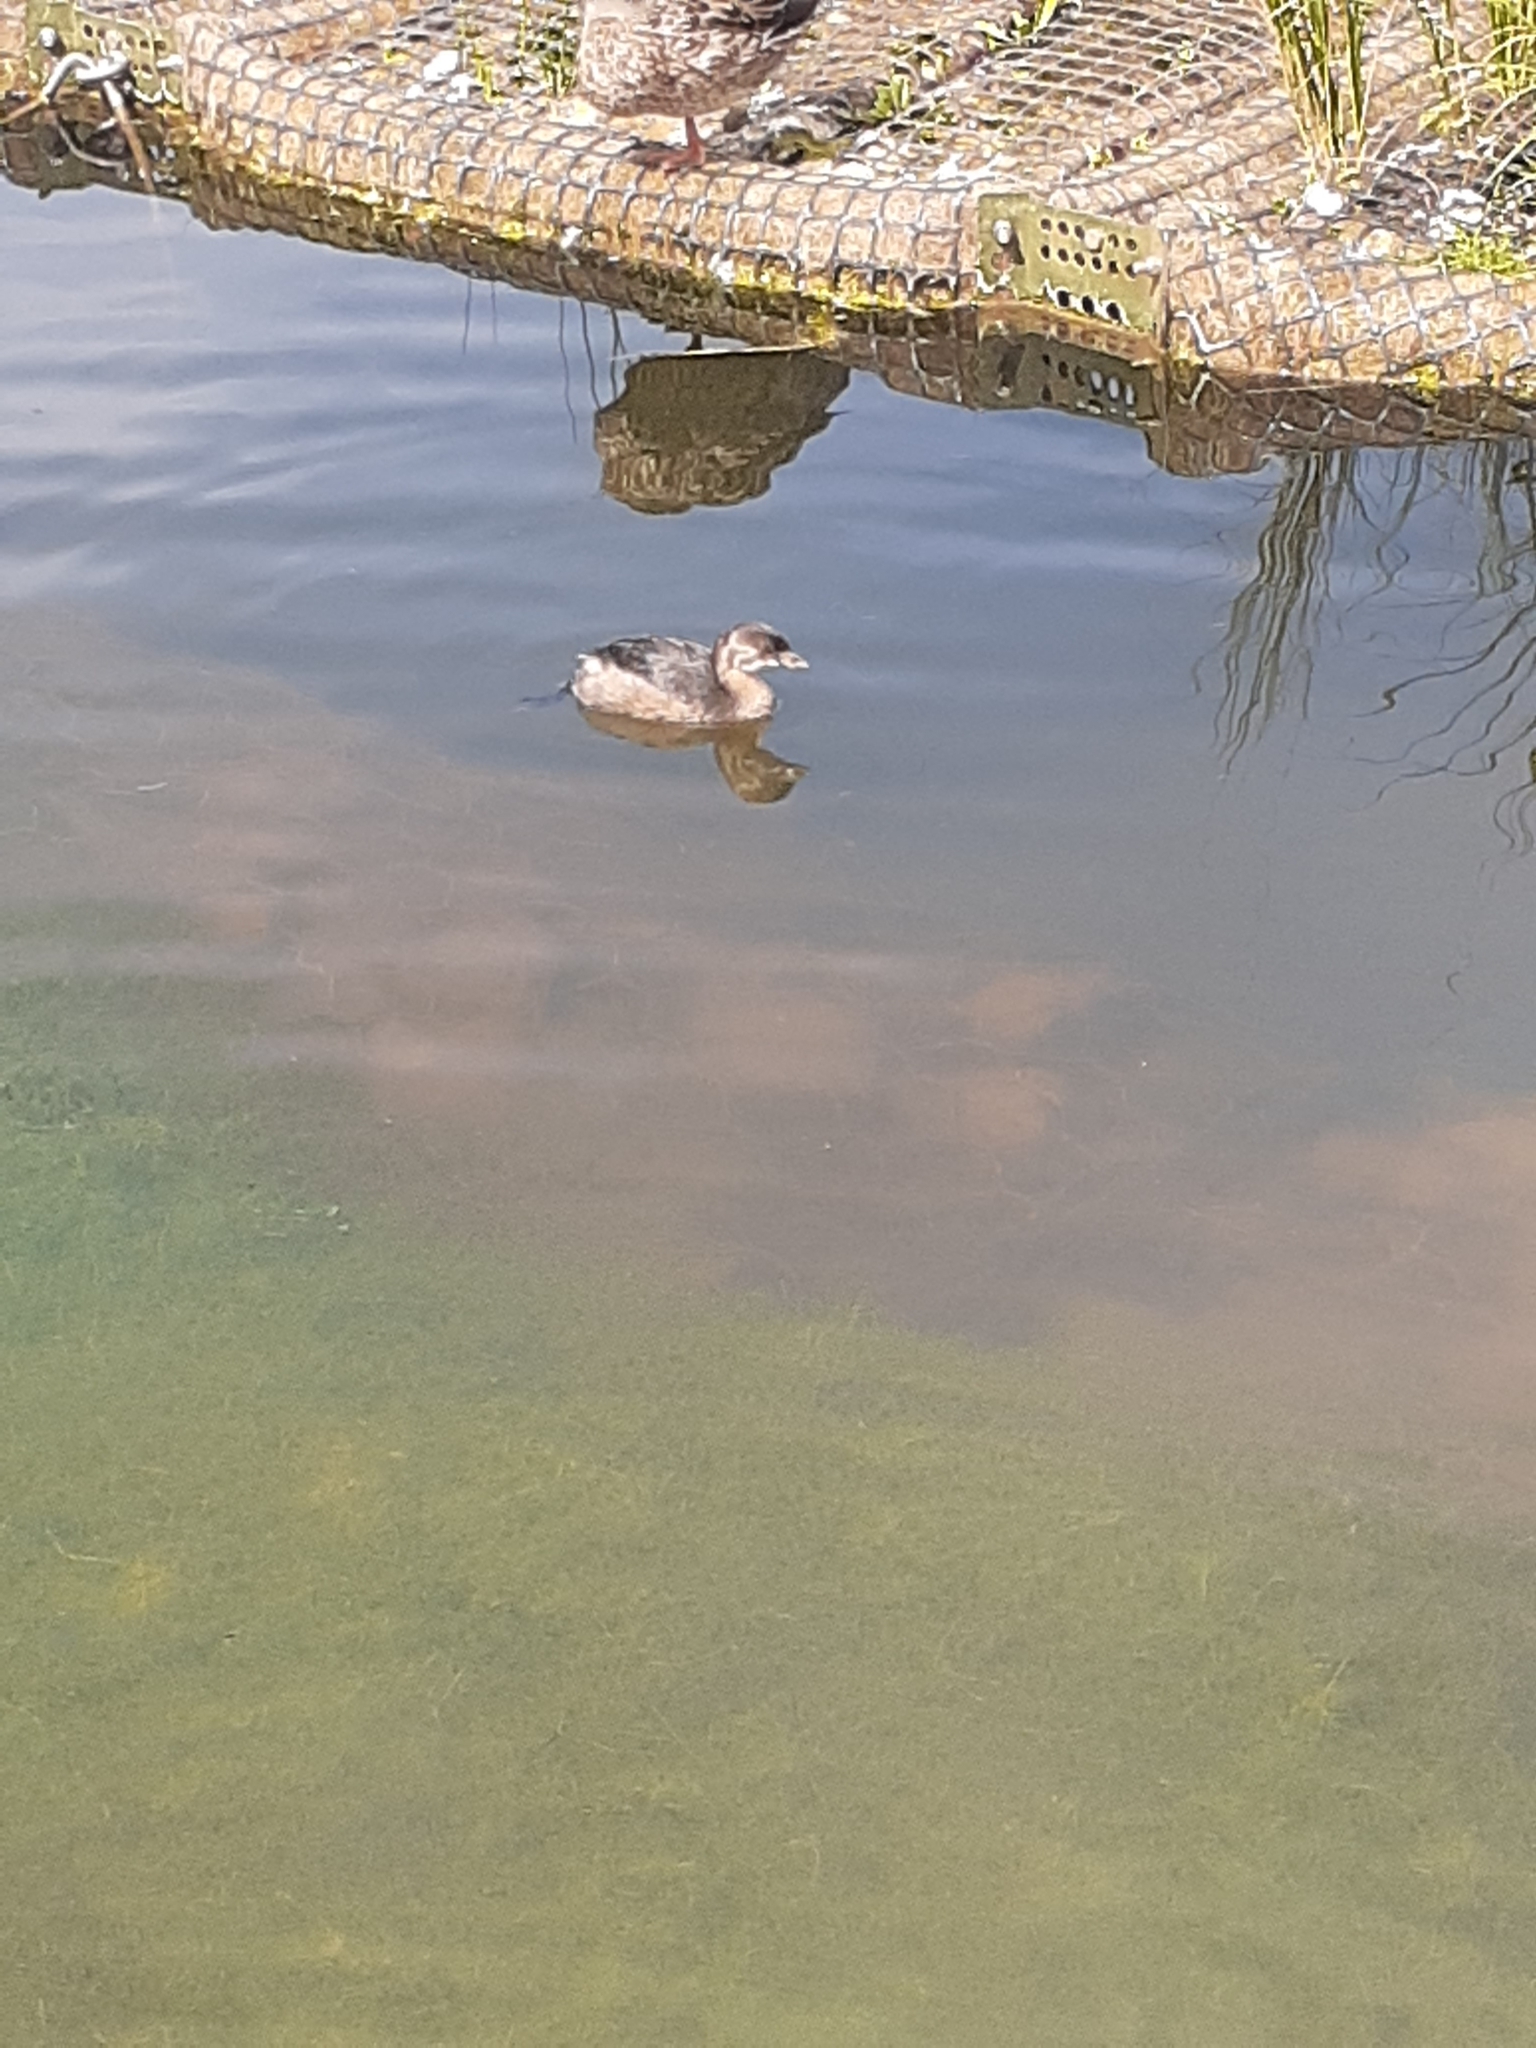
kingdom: Animalia
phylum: Chordata
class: Aves
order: Podicipediformes
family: Podicipedidae
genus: Podilymbus
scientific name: Podilymbus podiceps
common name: Pied-billed grebe
